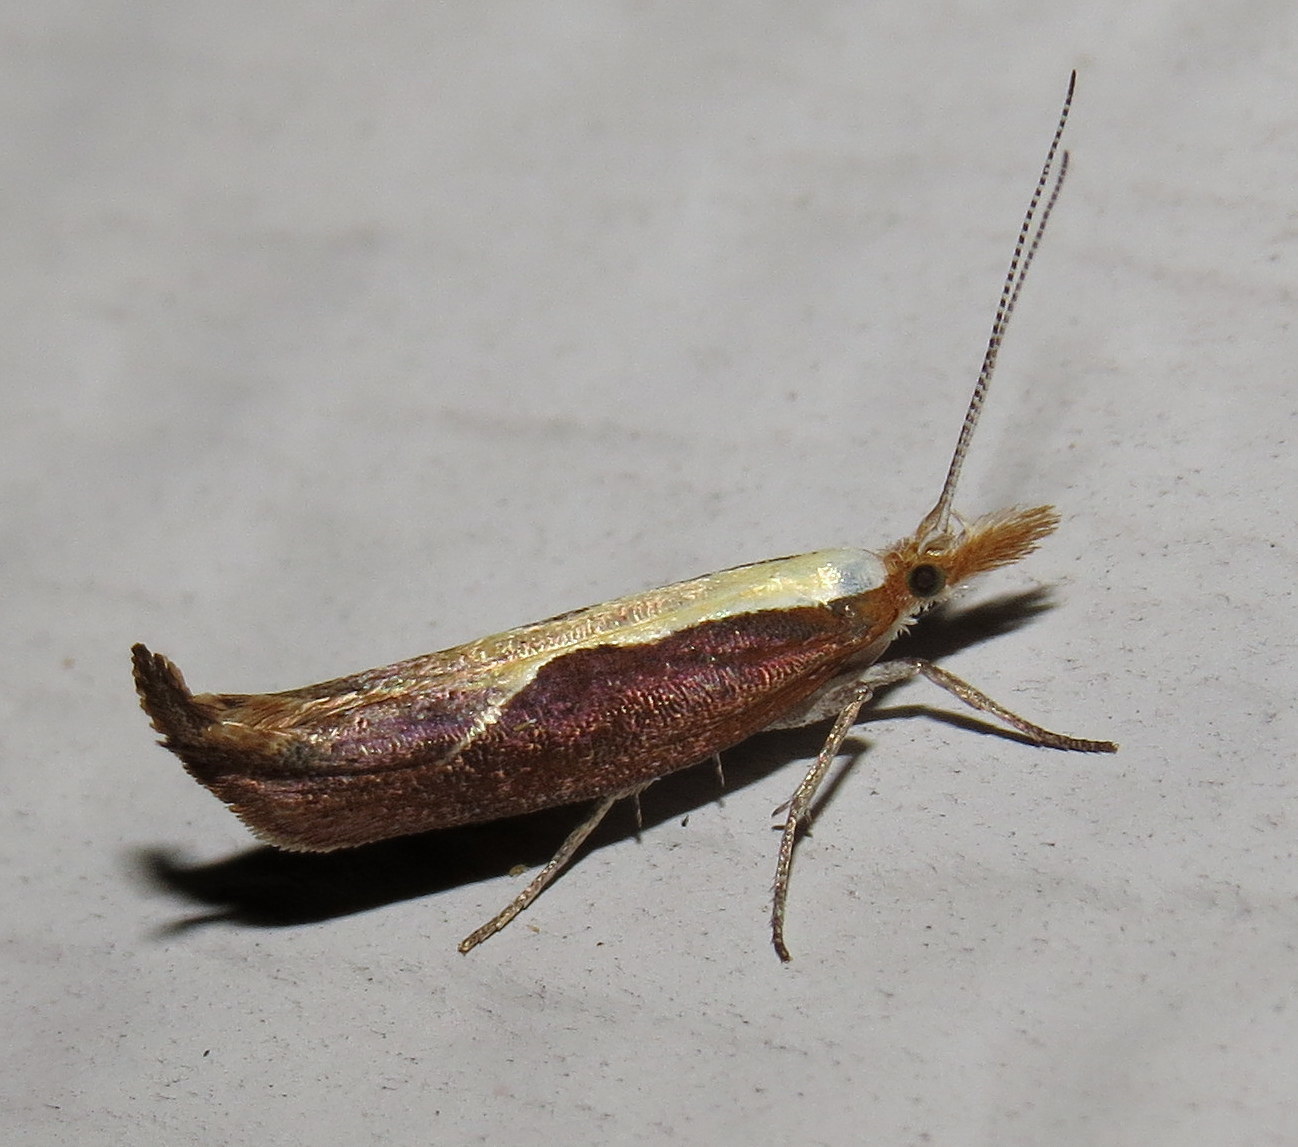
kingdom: Animalia
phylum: Arthropoda
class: Insecta
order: Lepidoptera
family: Ypsolophidae
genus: Ypsolopha
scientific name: Ypsolopha dentella
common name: Honeysuckle moth
